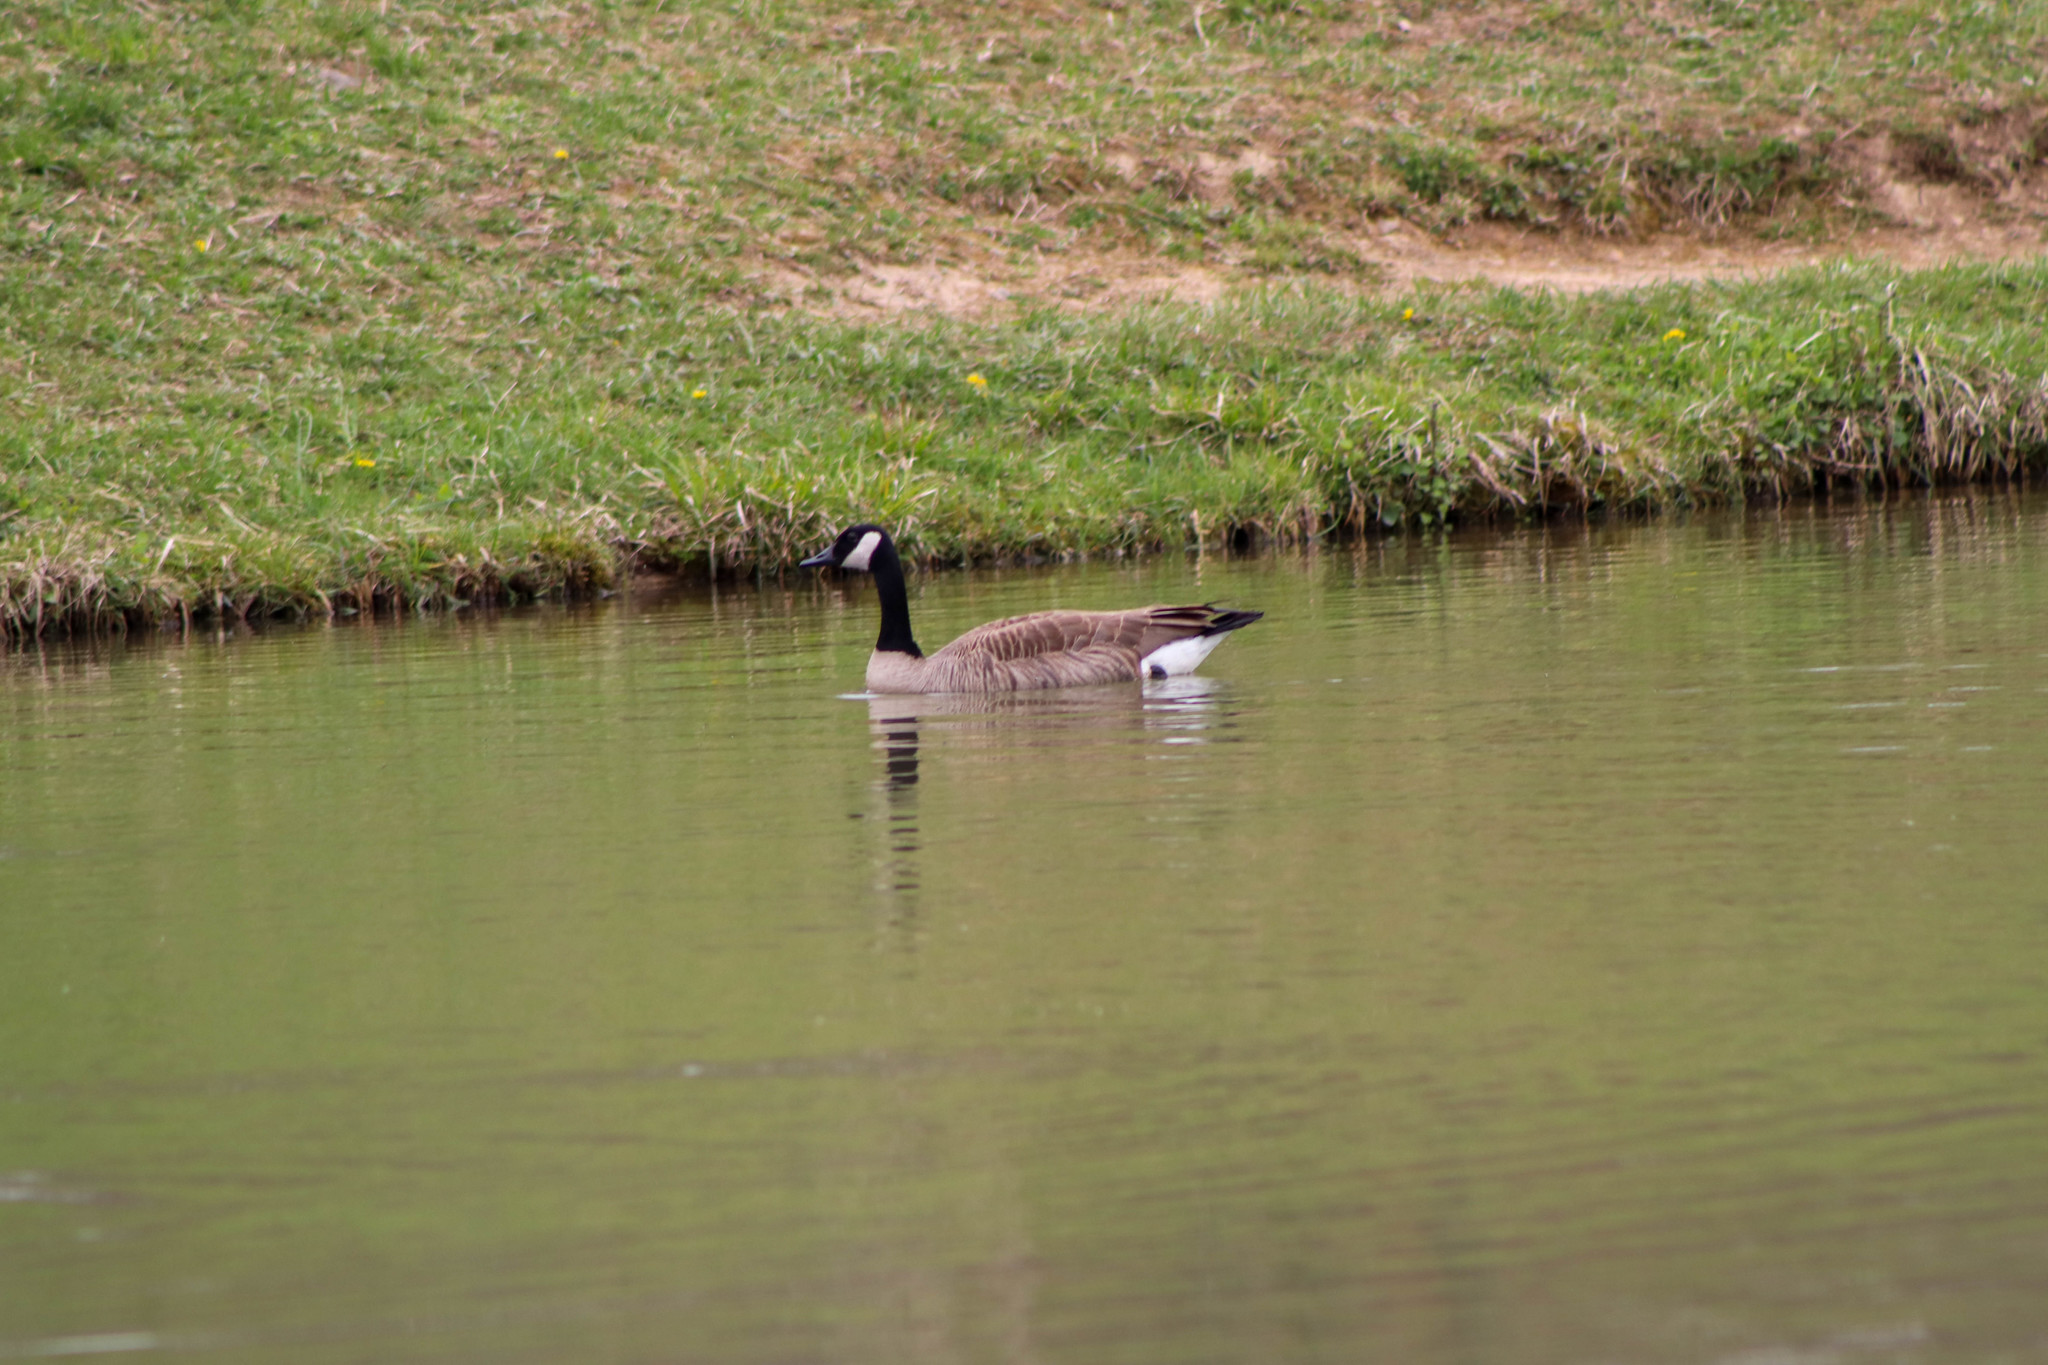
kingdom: Animalia
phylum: Chordata
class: Aves
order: Anseriformes
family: Anatidae
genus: Branta
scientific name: Branta canadensis
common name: Canada goose
